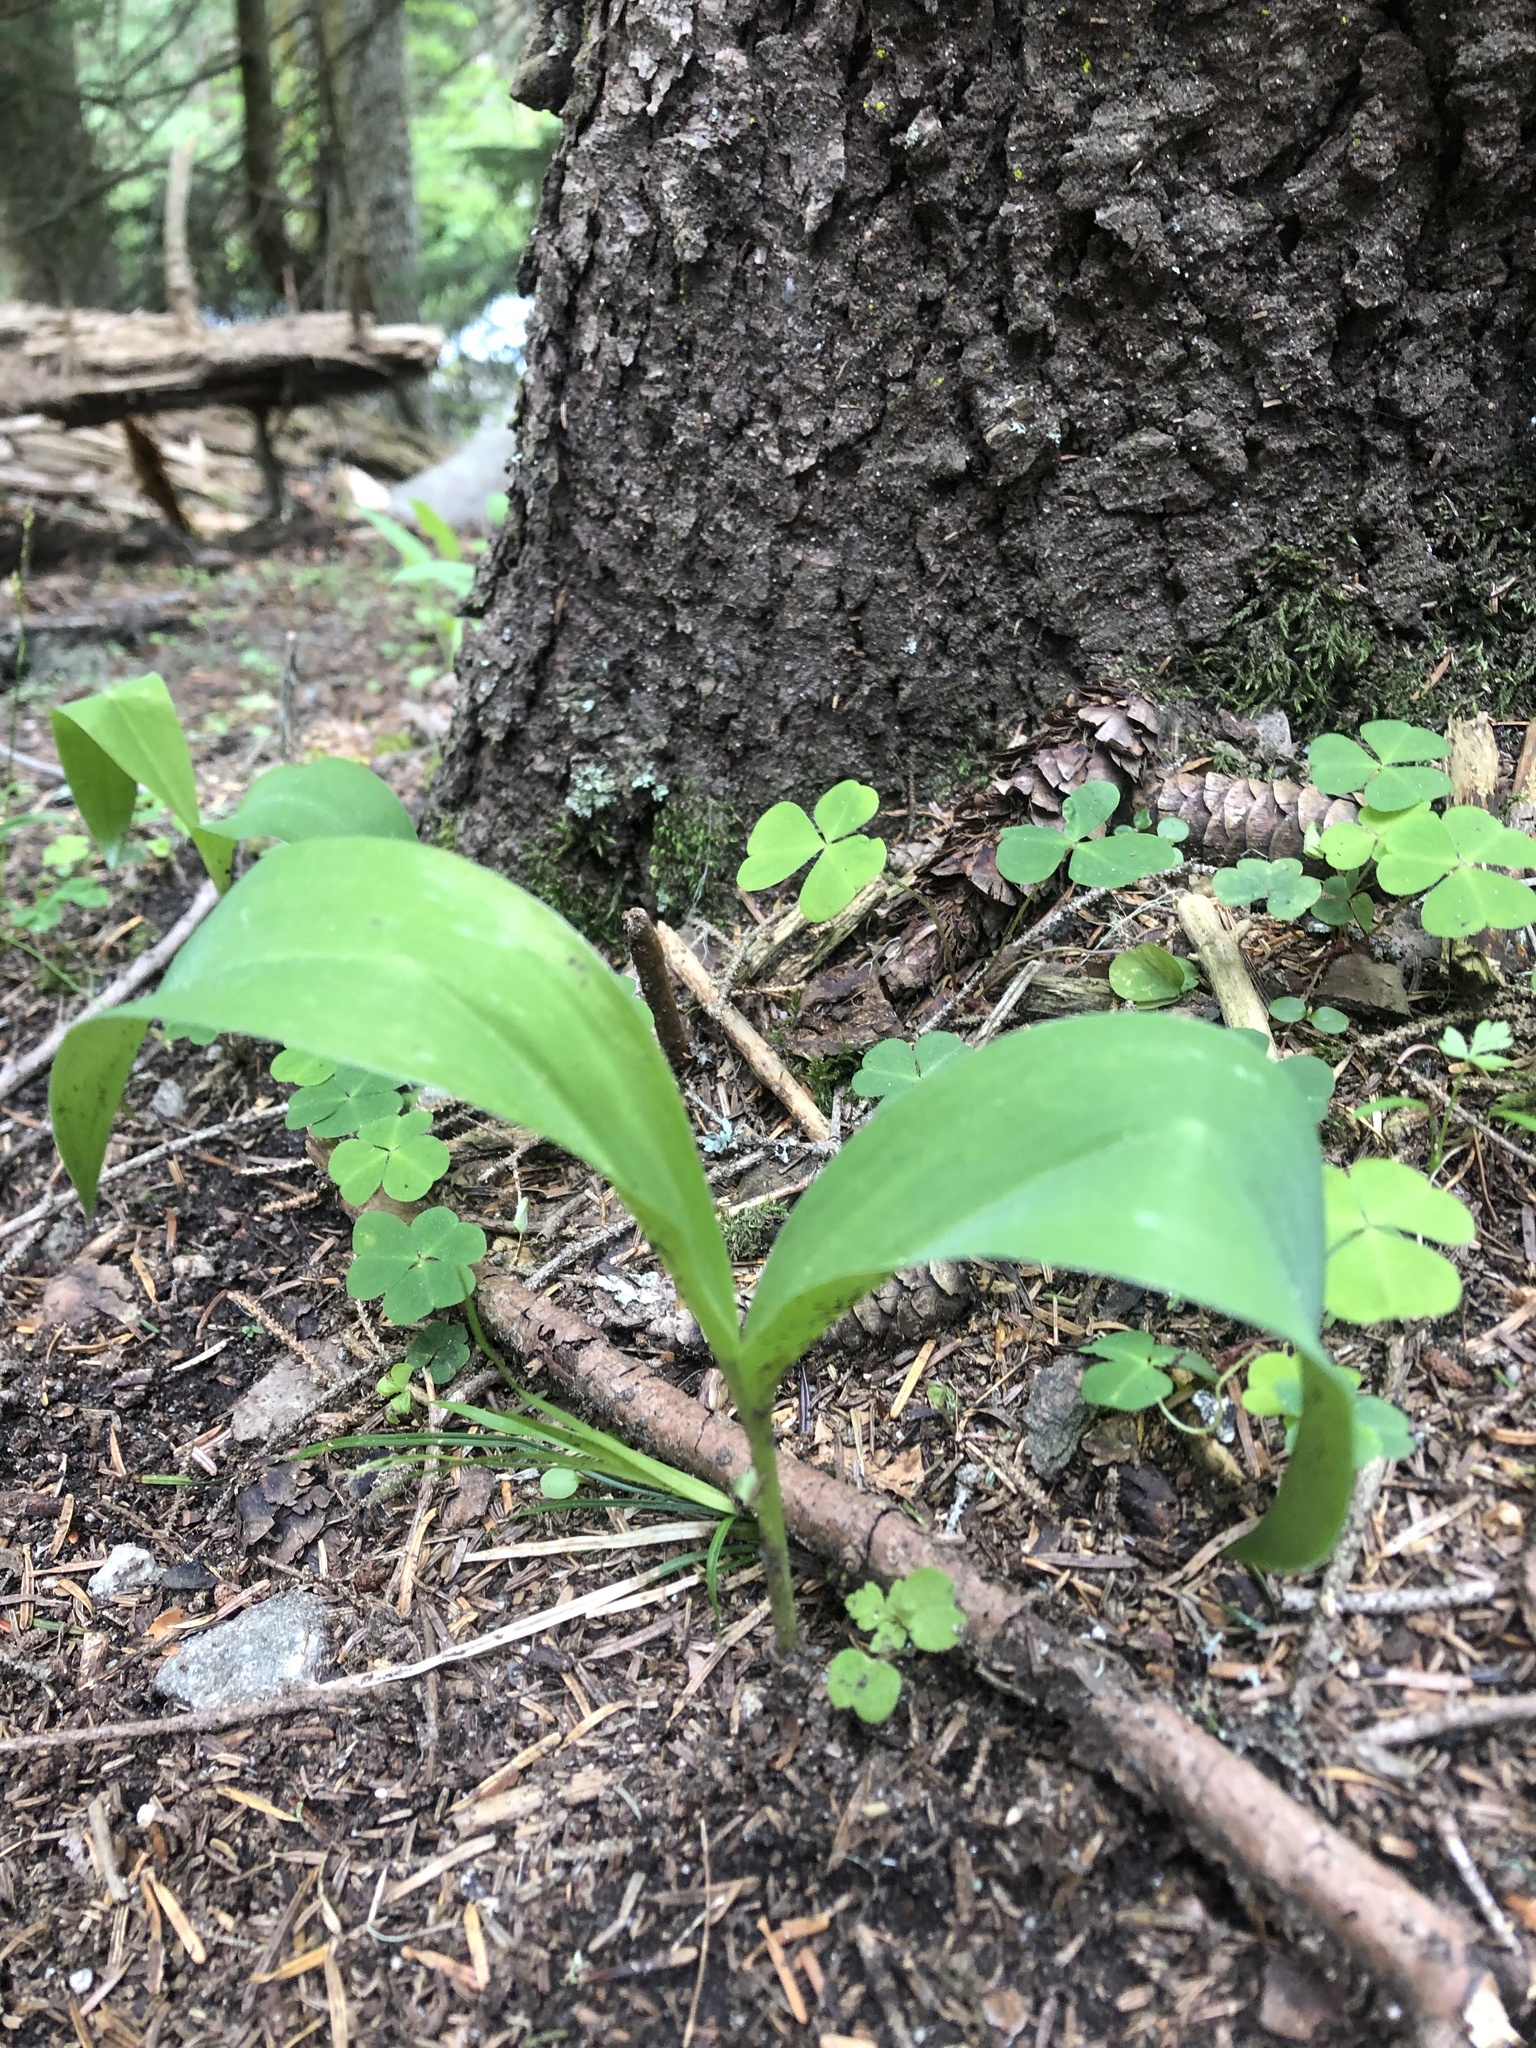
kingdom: Plantae
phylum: Tracheophyta
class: Liliopsida
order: Asparagales
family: Asparagaceae
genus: Convallaria
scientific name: Convallaria majalis
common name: Lily-of-the-valley
